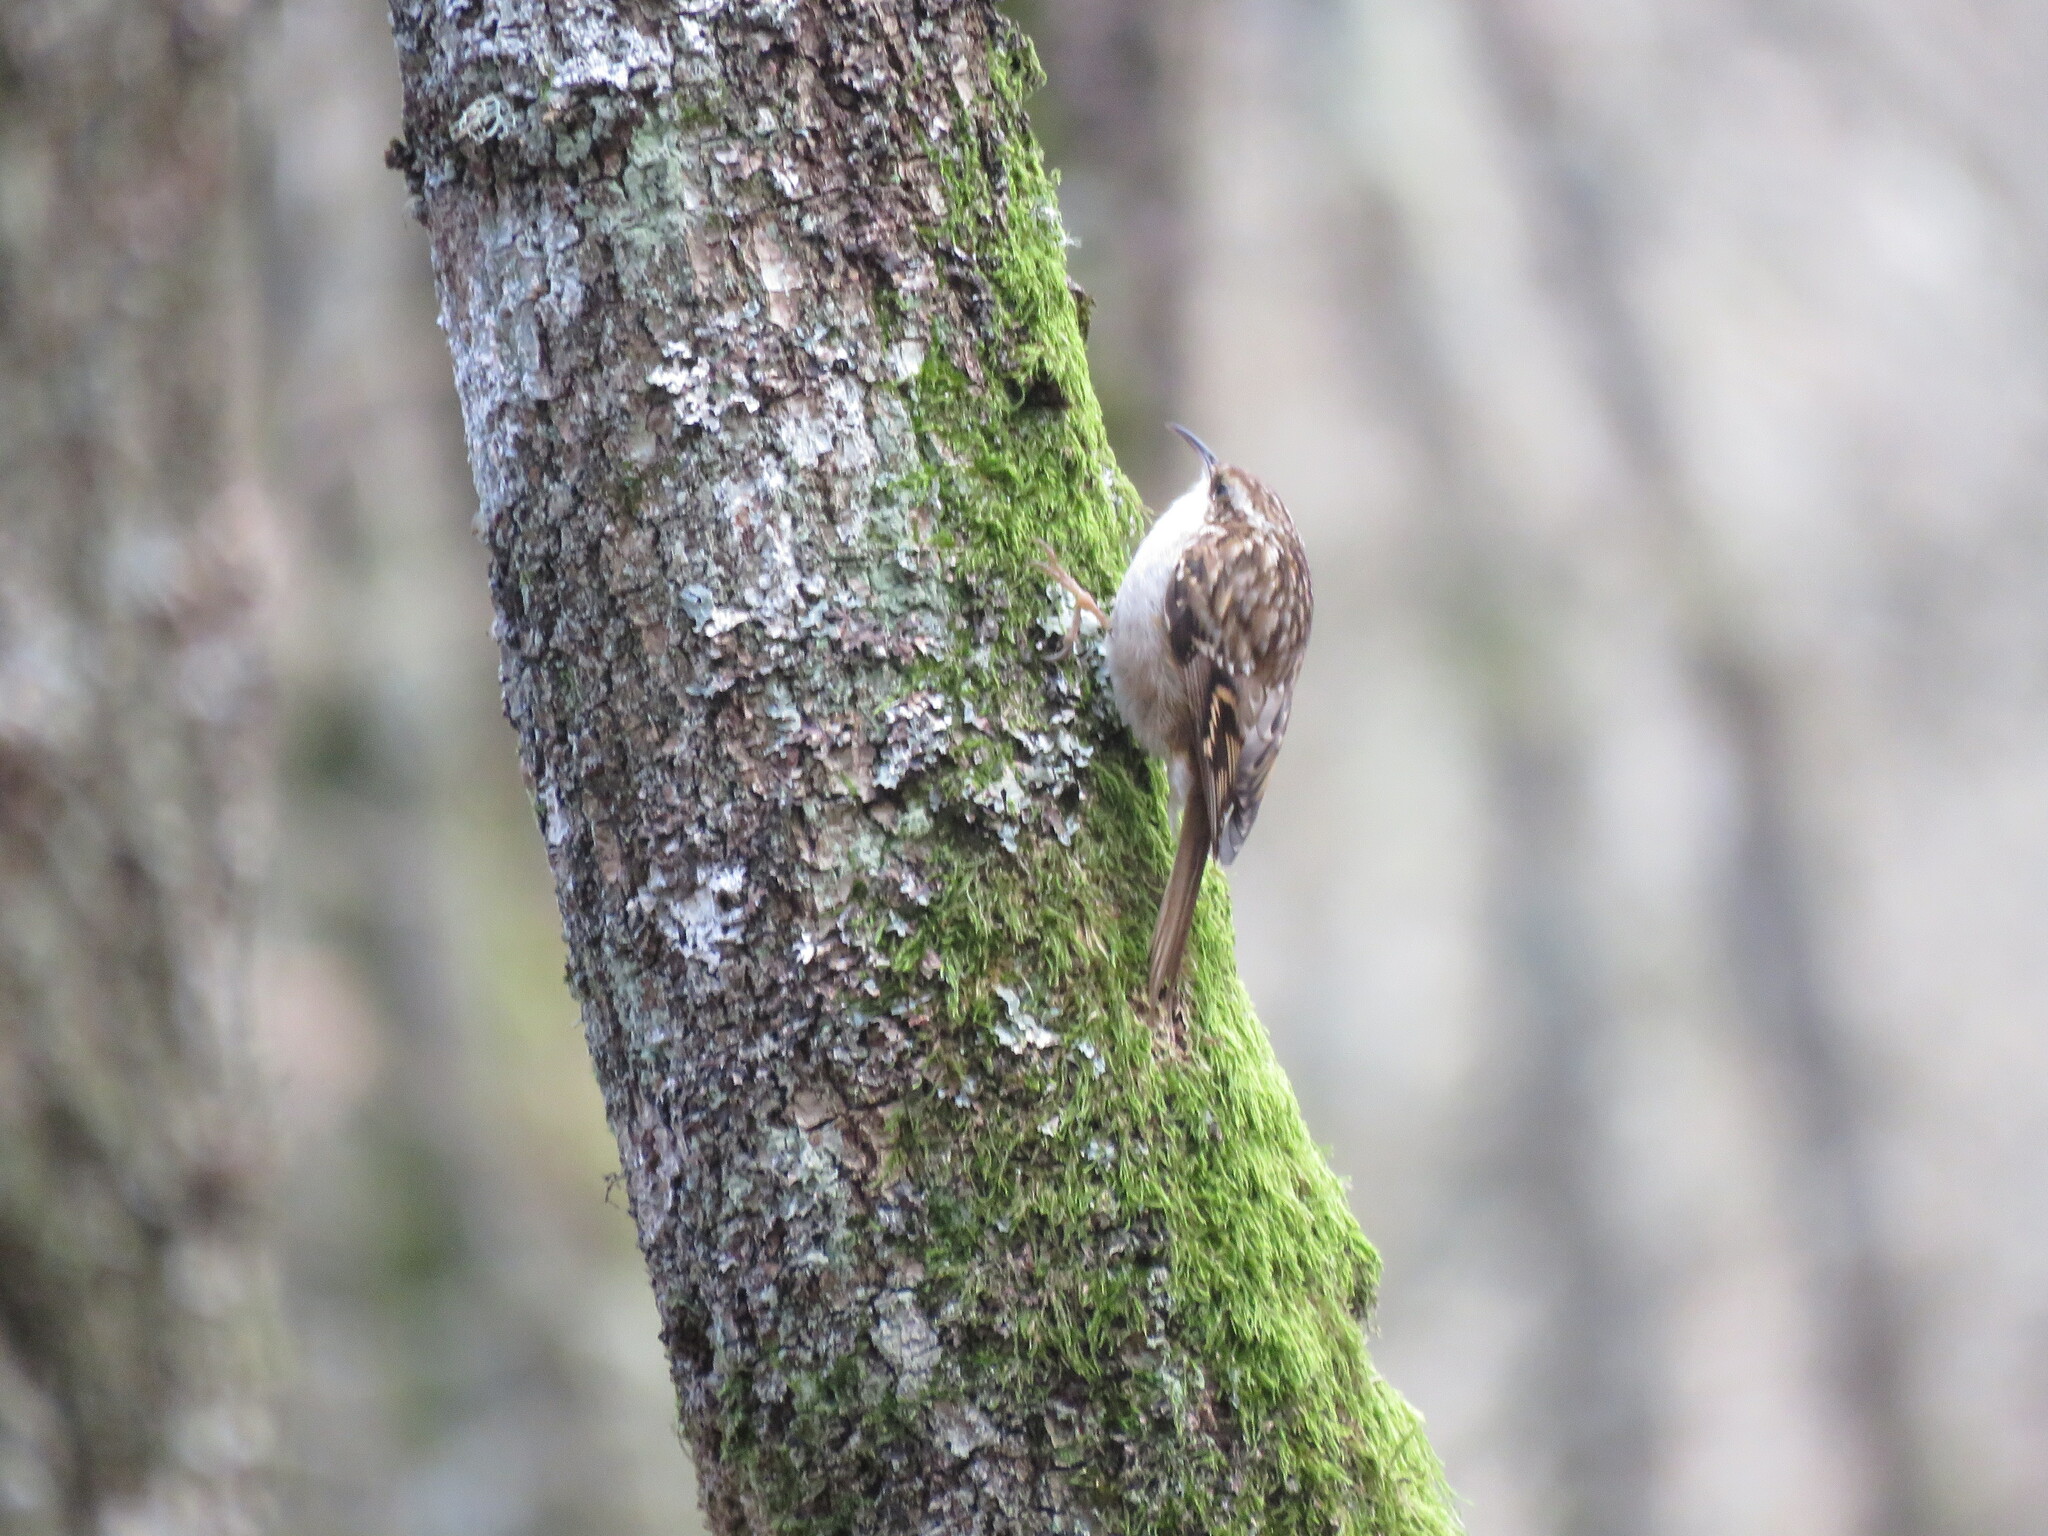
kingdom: Animalia
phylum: Chordata
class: Aves
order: Passeriformes
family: Certhiidae
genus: Certhia
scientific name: Certhia brachydactyla
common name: Short-toed treecreeper
